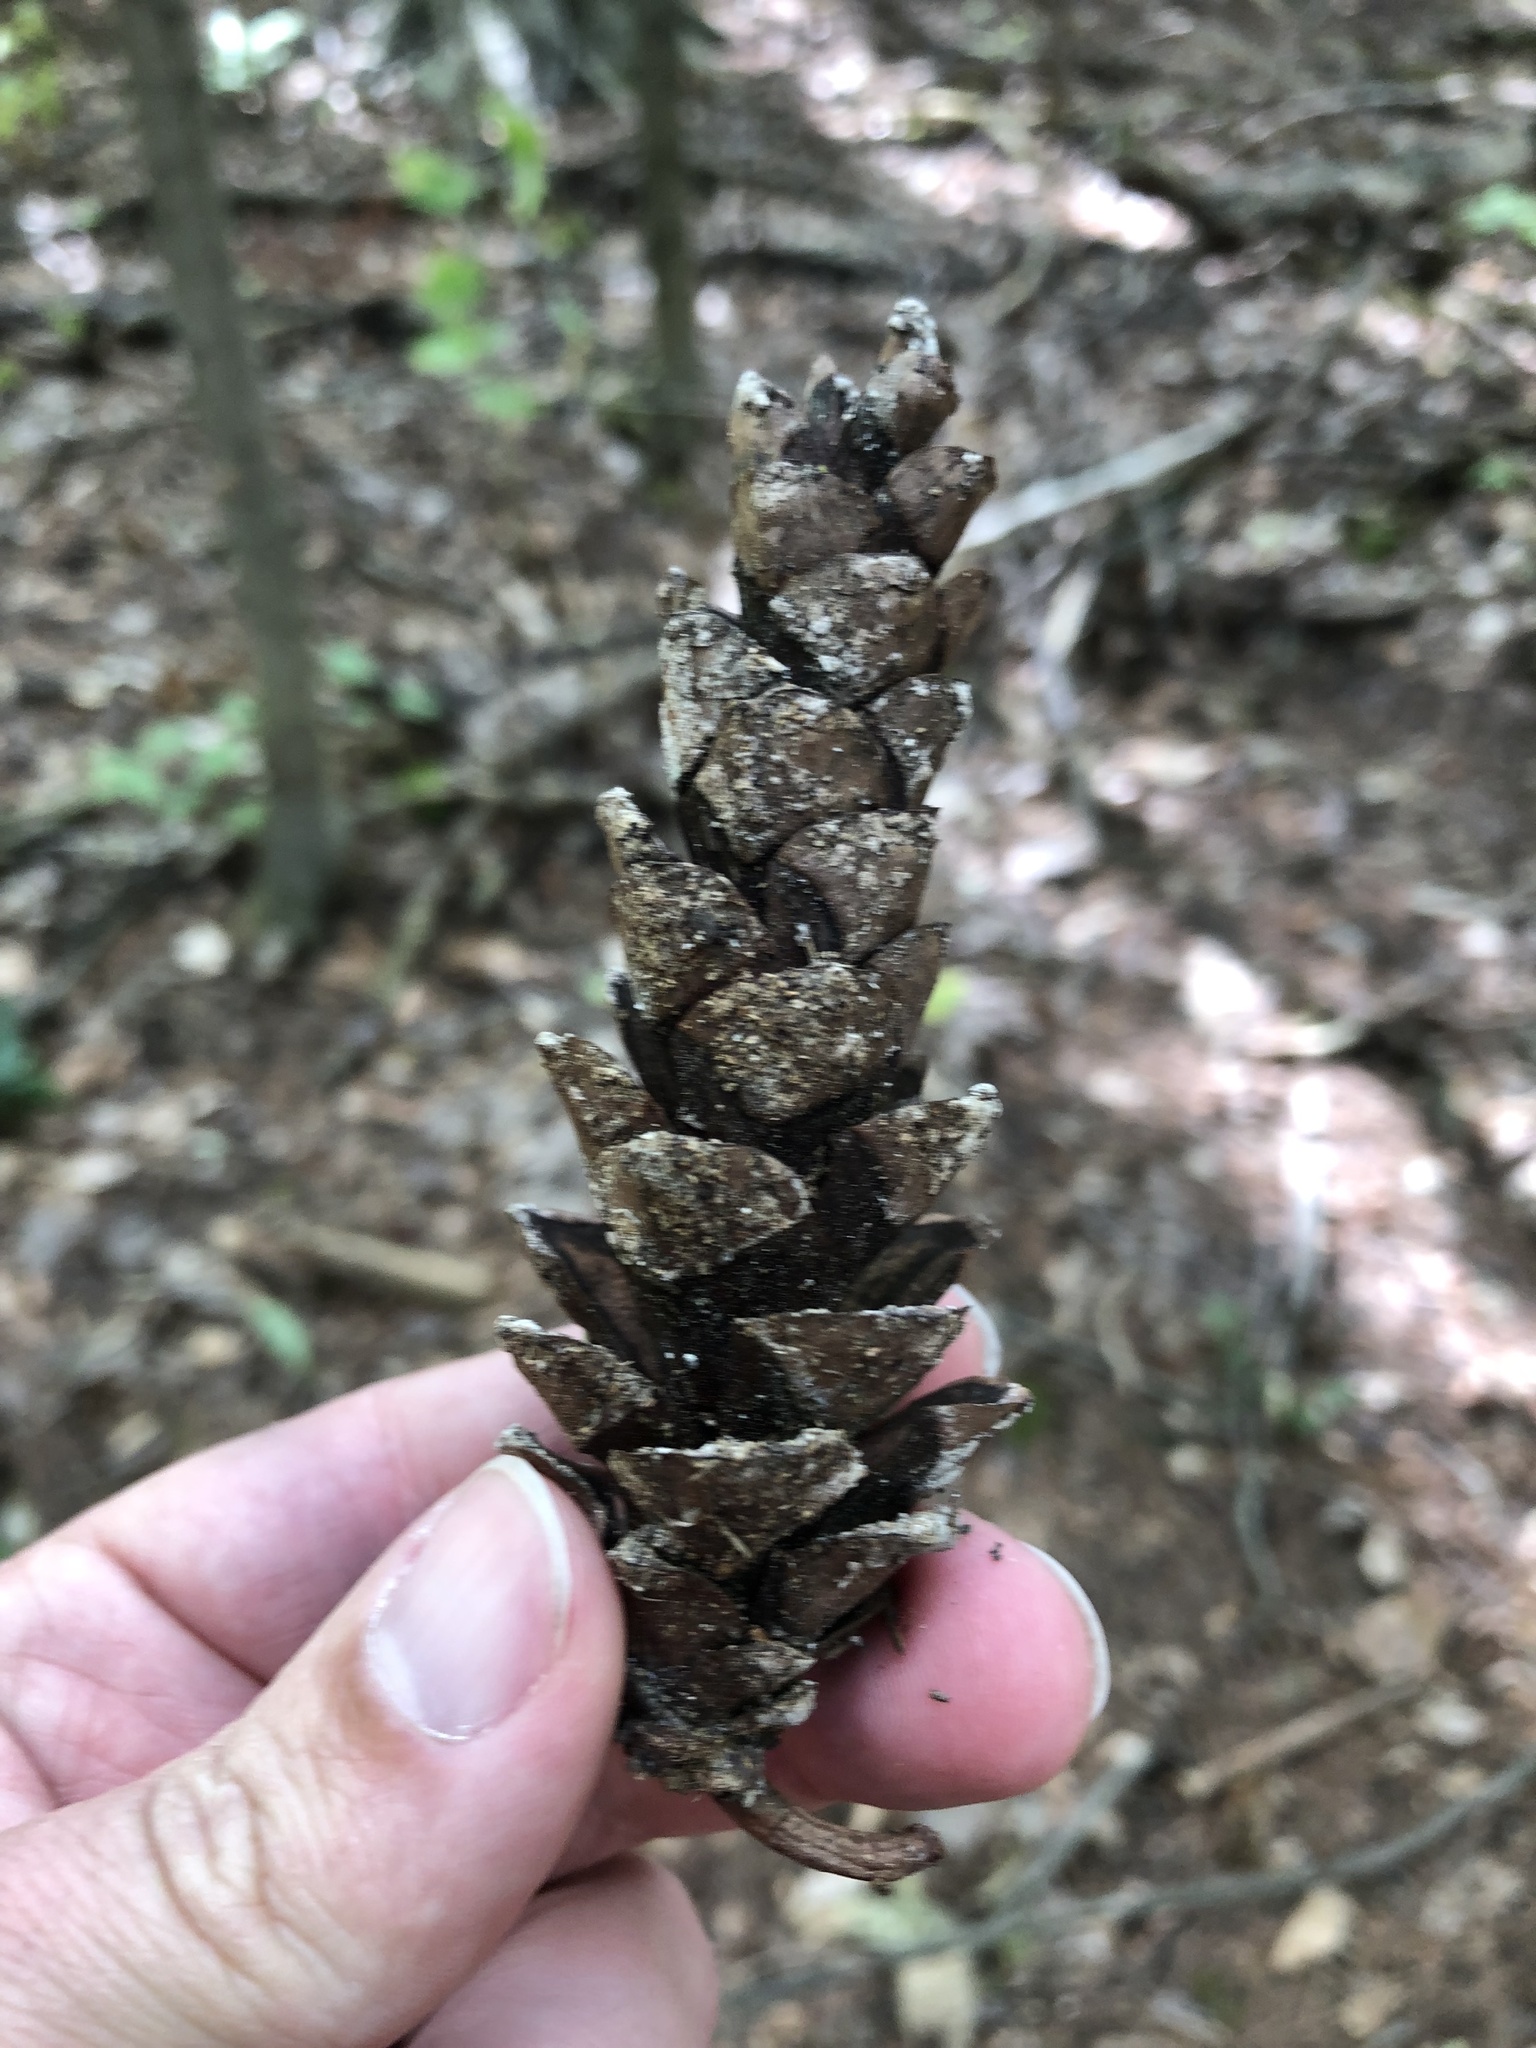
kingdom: Plantae
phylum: Tracheophyta
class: Pinopsida
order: Pinales
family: Pinaceae
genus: Pinus
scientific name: Pinus strobus
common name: Weymouth pine
